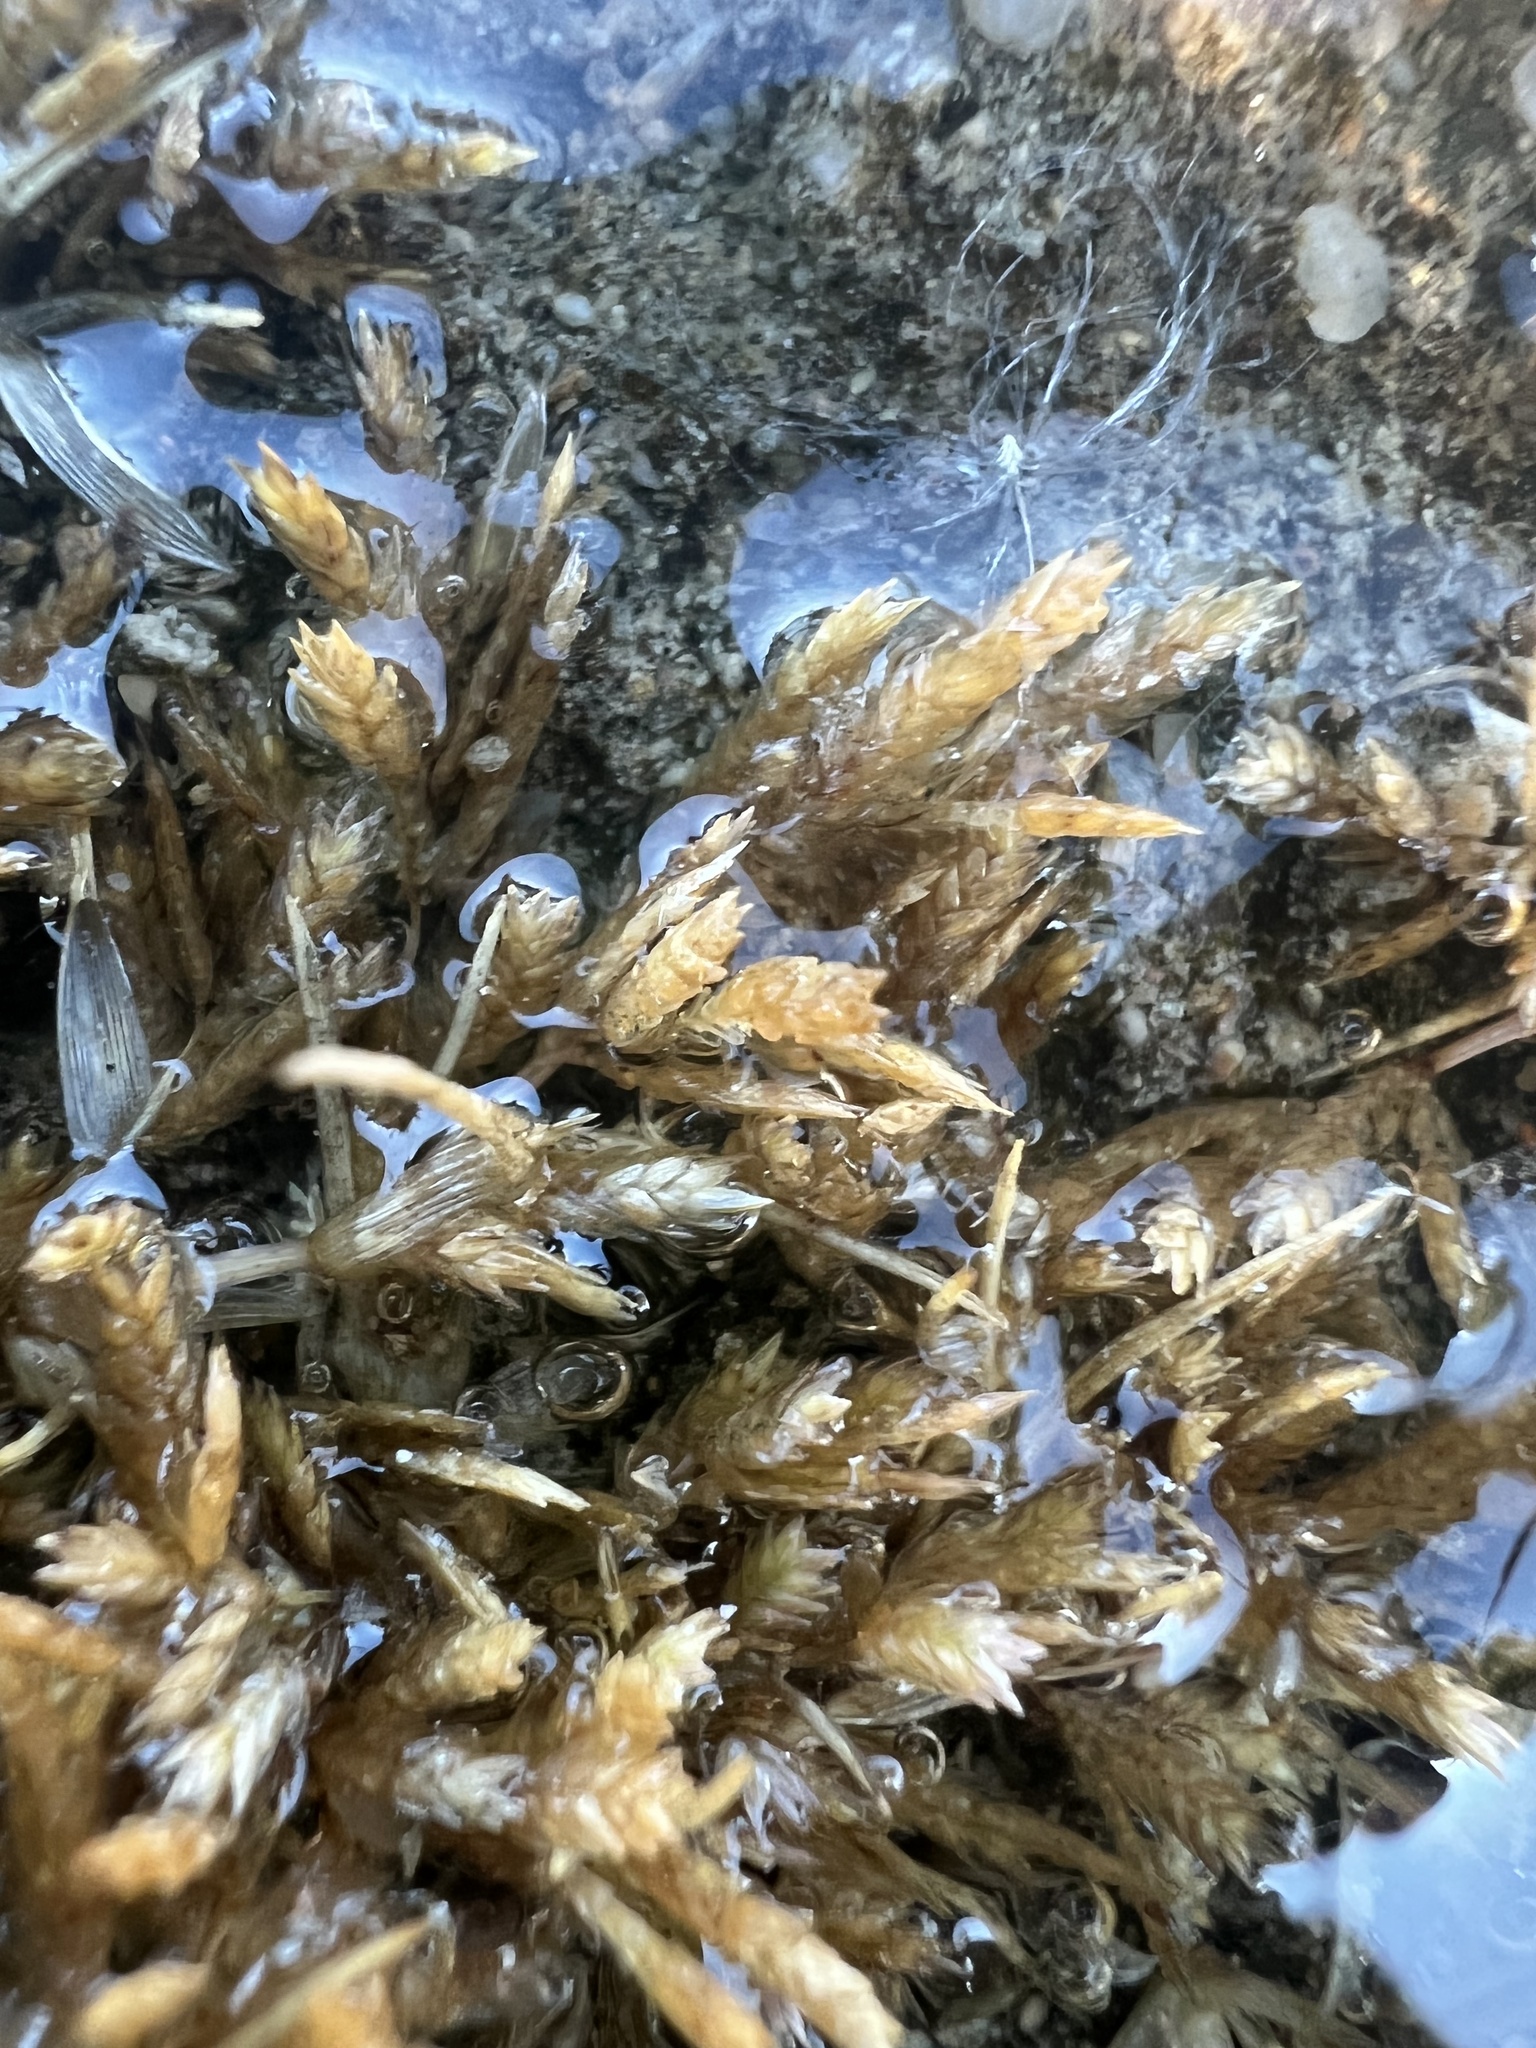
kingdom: Plantae
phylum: Tracheophyta
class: Liliopsida
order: Poales
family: Poaceae
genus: Eragrostis
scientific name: Eragrostis hypnoides
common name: Creeping love grass
